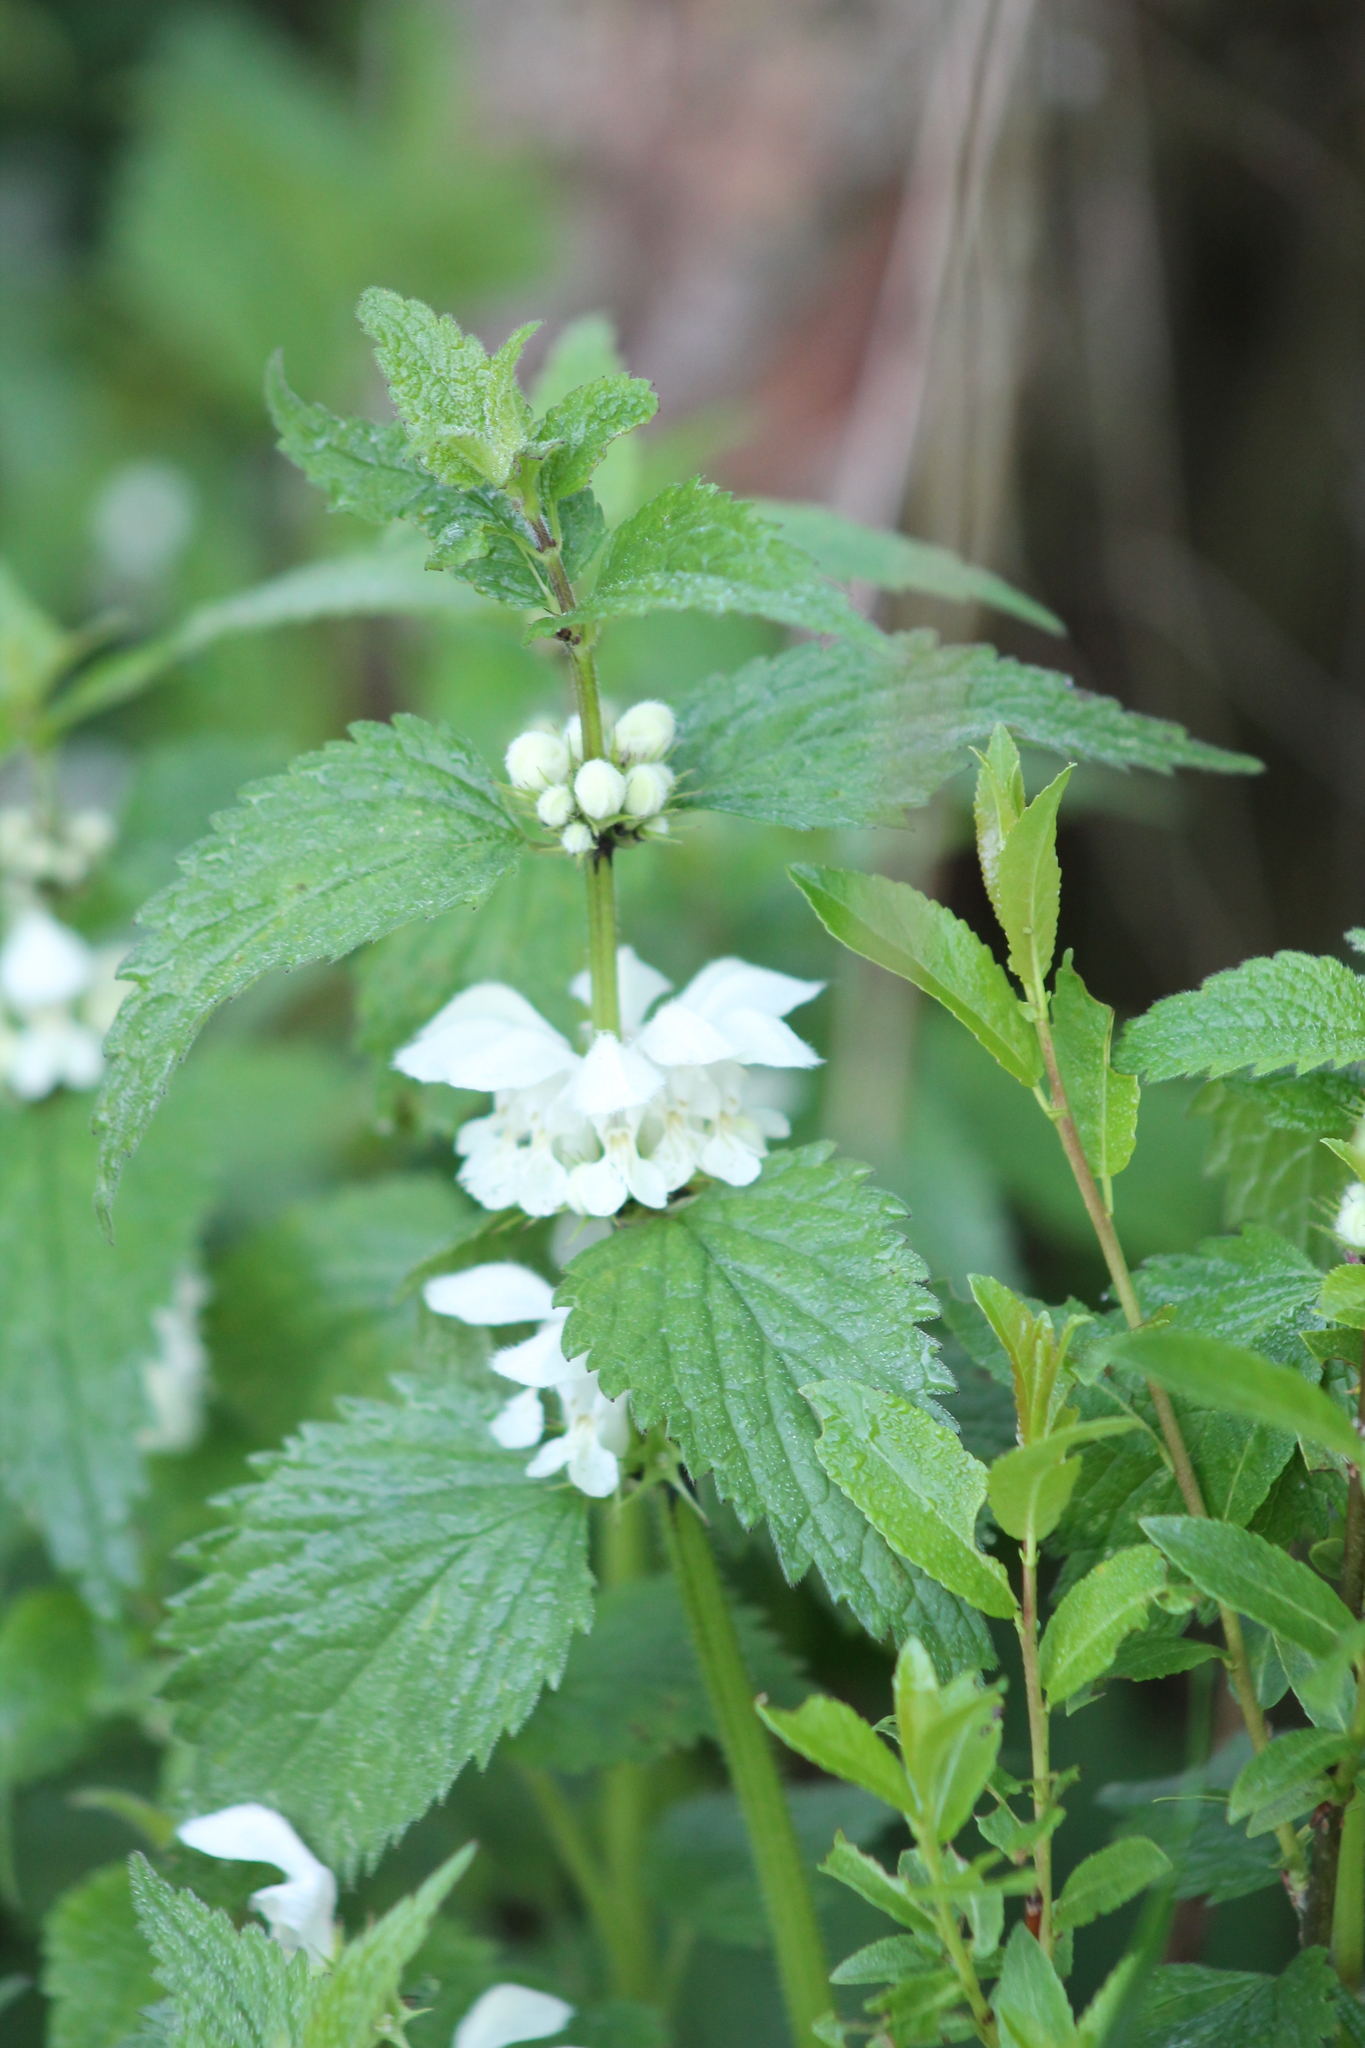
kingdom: Plantae
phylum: Tracheophyta
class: Magnoliopsida
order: Lamiales
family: Lamiaceae
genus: Lamium
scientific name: Lamium album
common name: White dead-nettle
